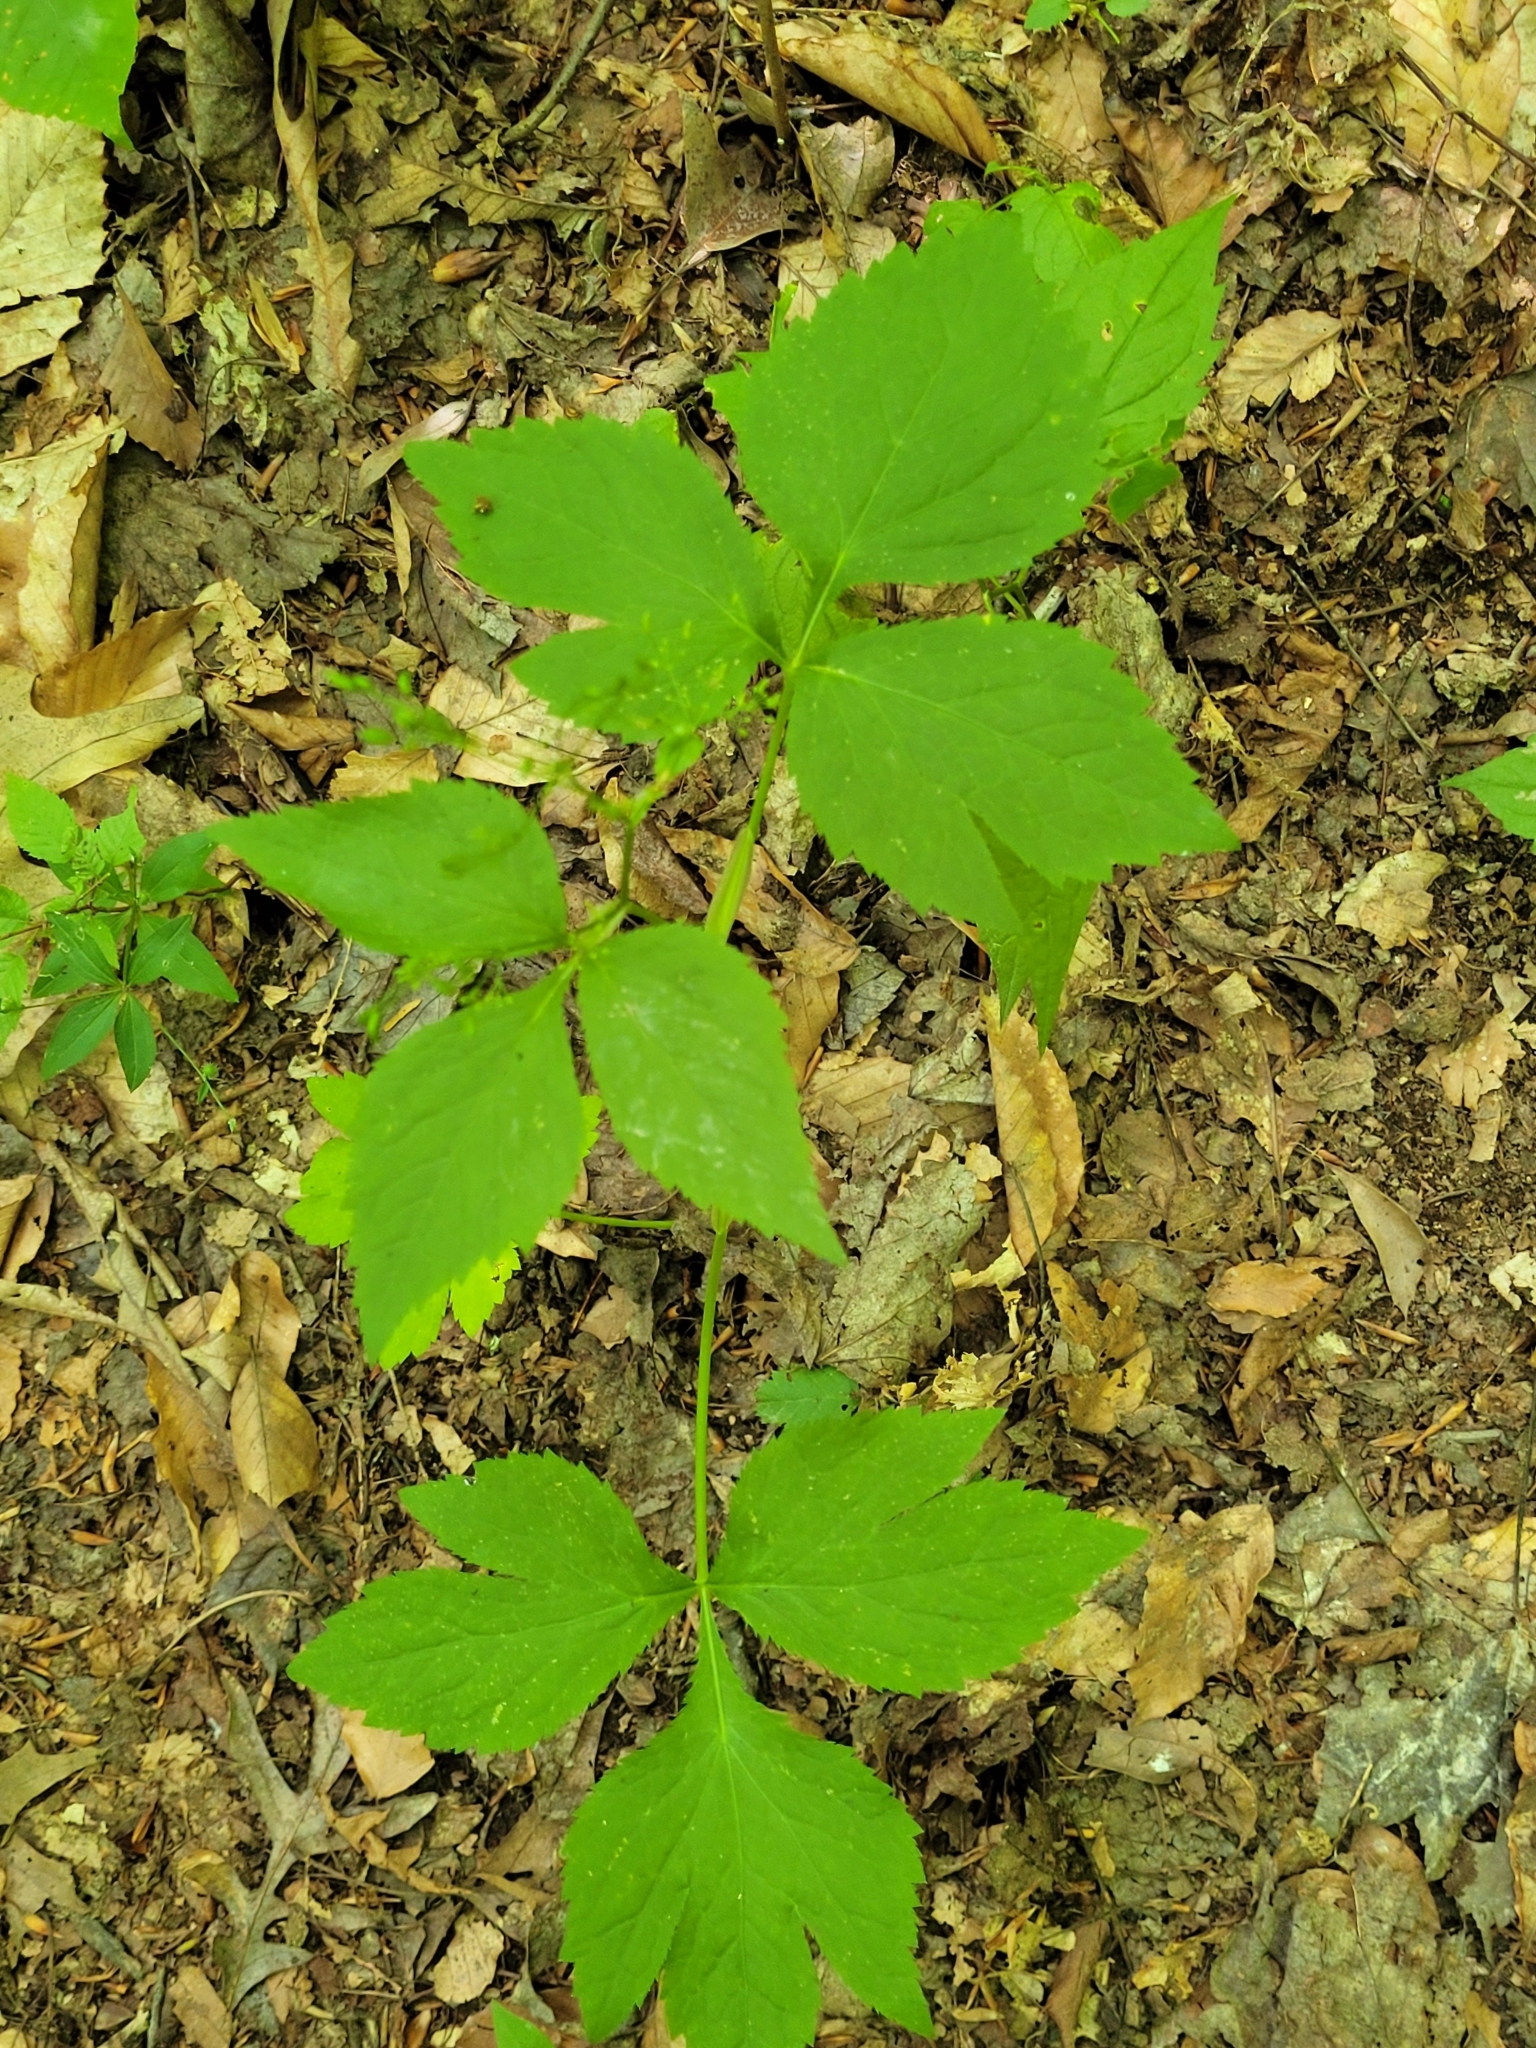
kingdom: Plantae
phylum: Tracheophyta
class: Magnoliopsida
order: Apiales
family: Apiaceae
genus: Cryptotaenia
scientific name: Cryptotaenia canadensis
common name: Honewort
